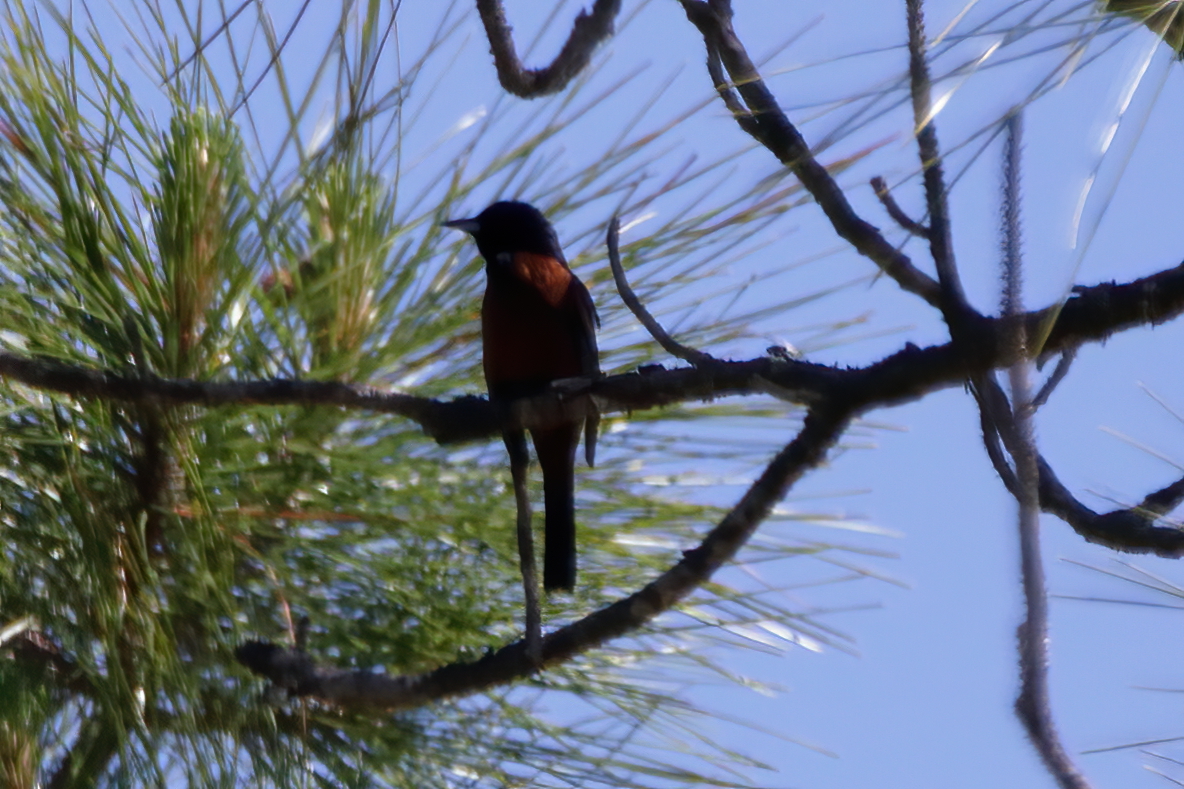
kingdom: Animalia
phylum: Chordata
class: Aves
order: Passeriformes
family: Icteridae
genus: Icterus
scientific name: Icterus spurius
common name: Orchard oriole
